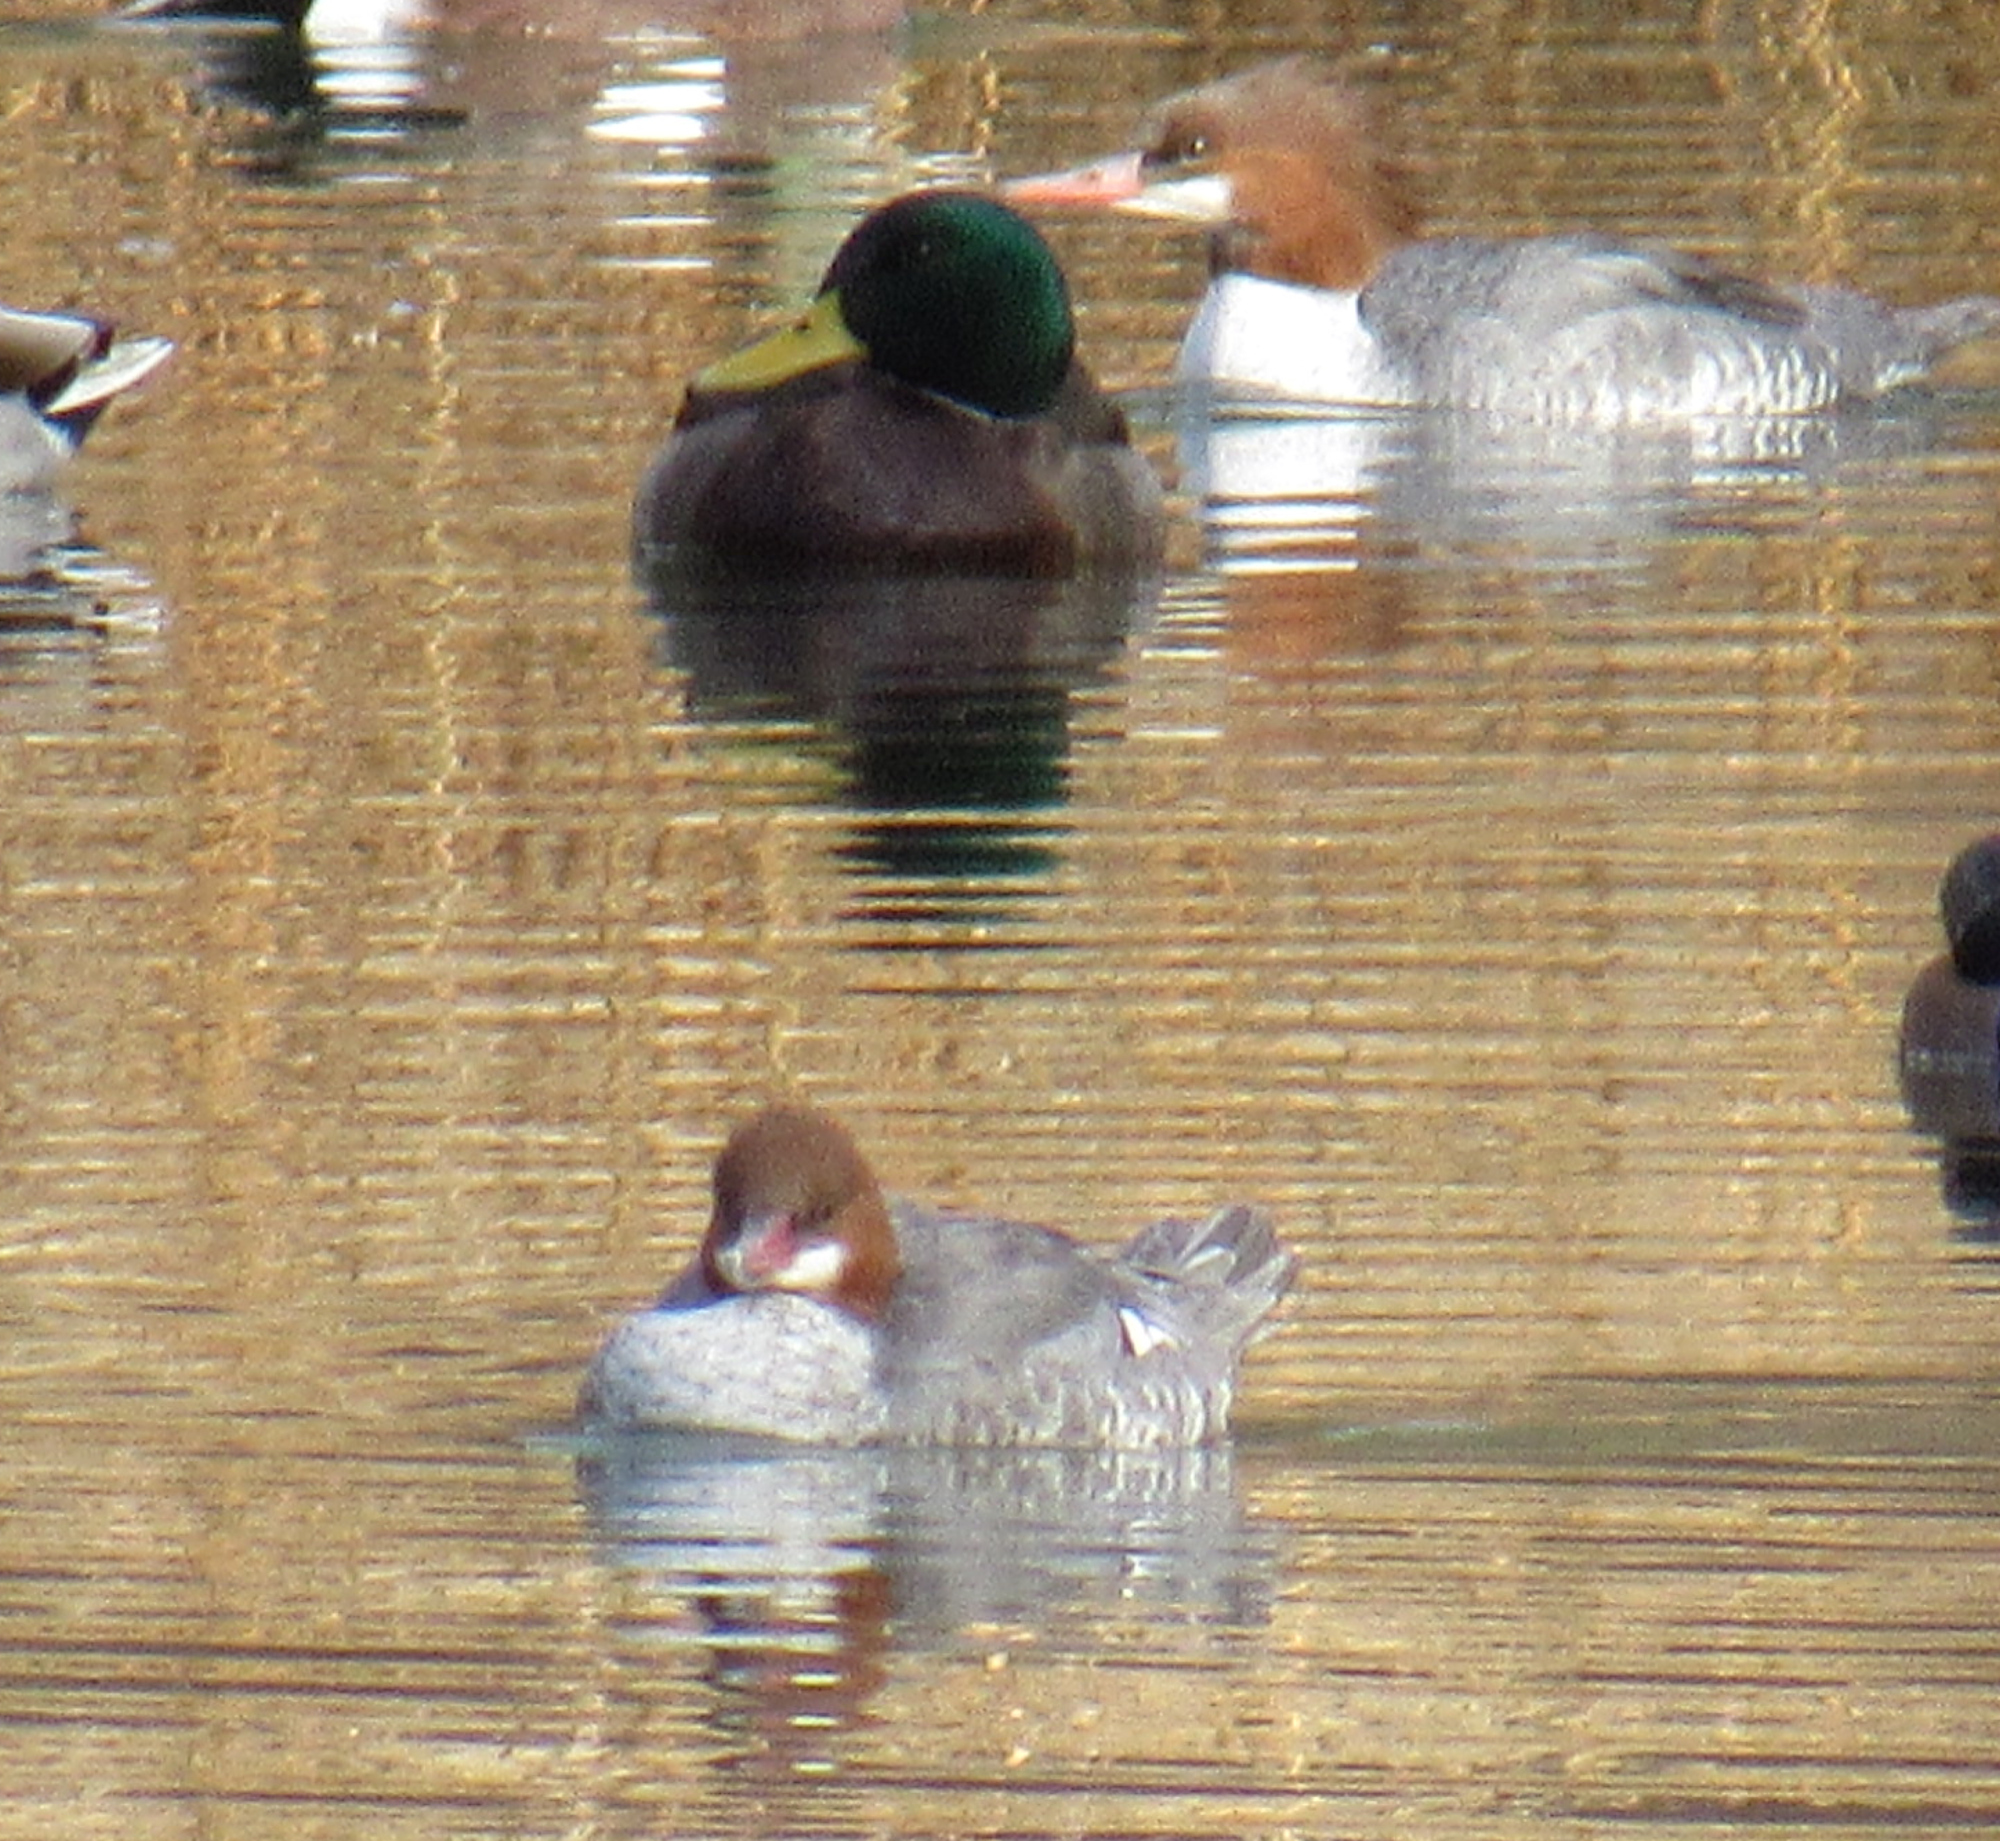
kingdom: Animalia
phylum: Chordata
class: Aves
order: Anseriformes
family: Anatidae
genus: Mergus
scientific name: Mergus merganser
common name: Common merganser
